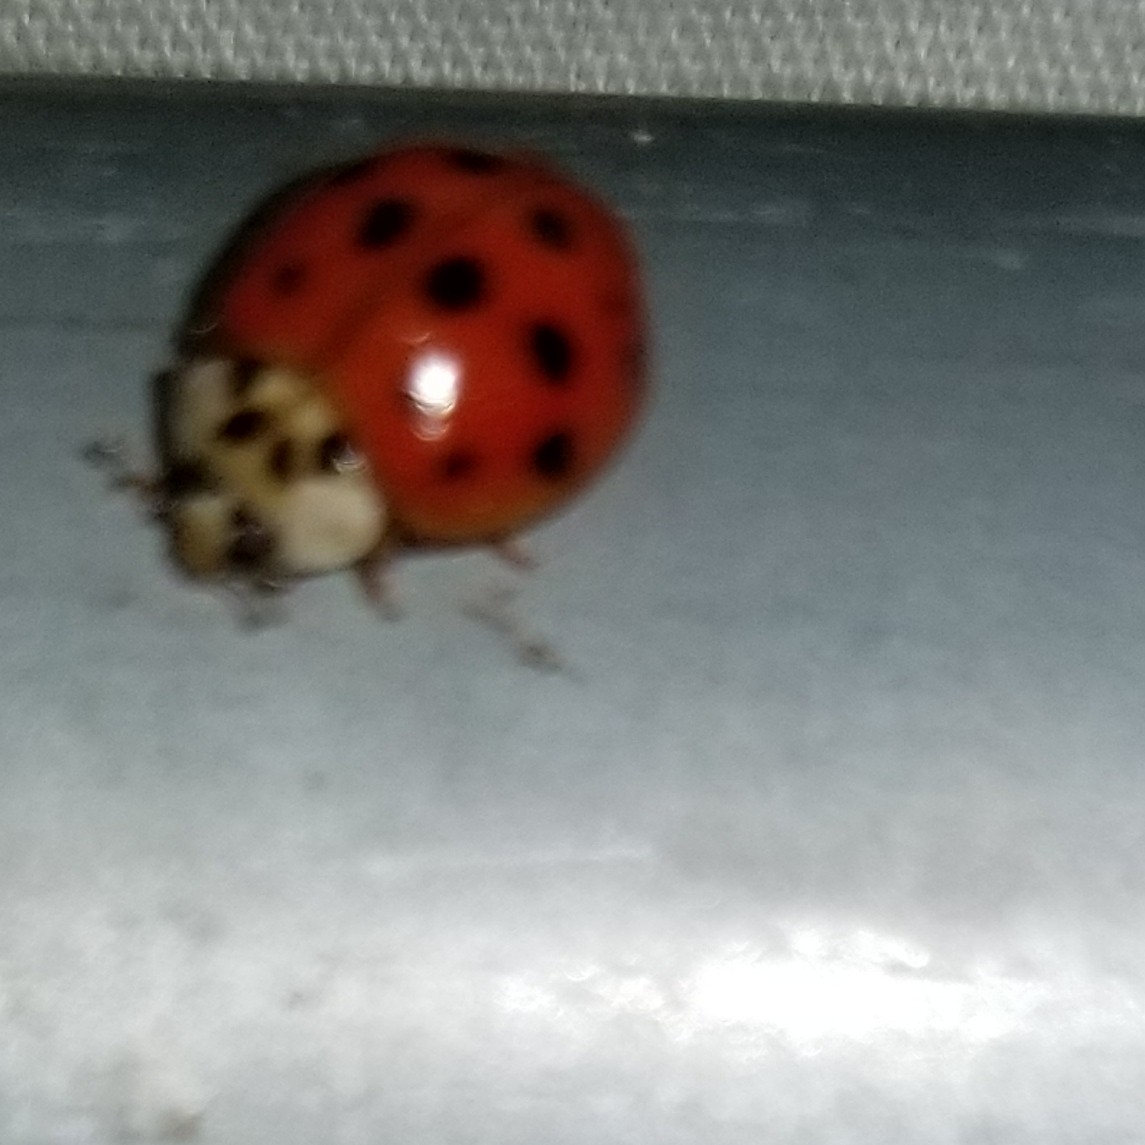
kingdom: Animalia
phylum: Arthropoda
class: Insecta
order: Coleoptera
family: Coccinellidae
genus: Harmonia
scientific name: Harmonia axyridis
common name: Harlequin ladybird
